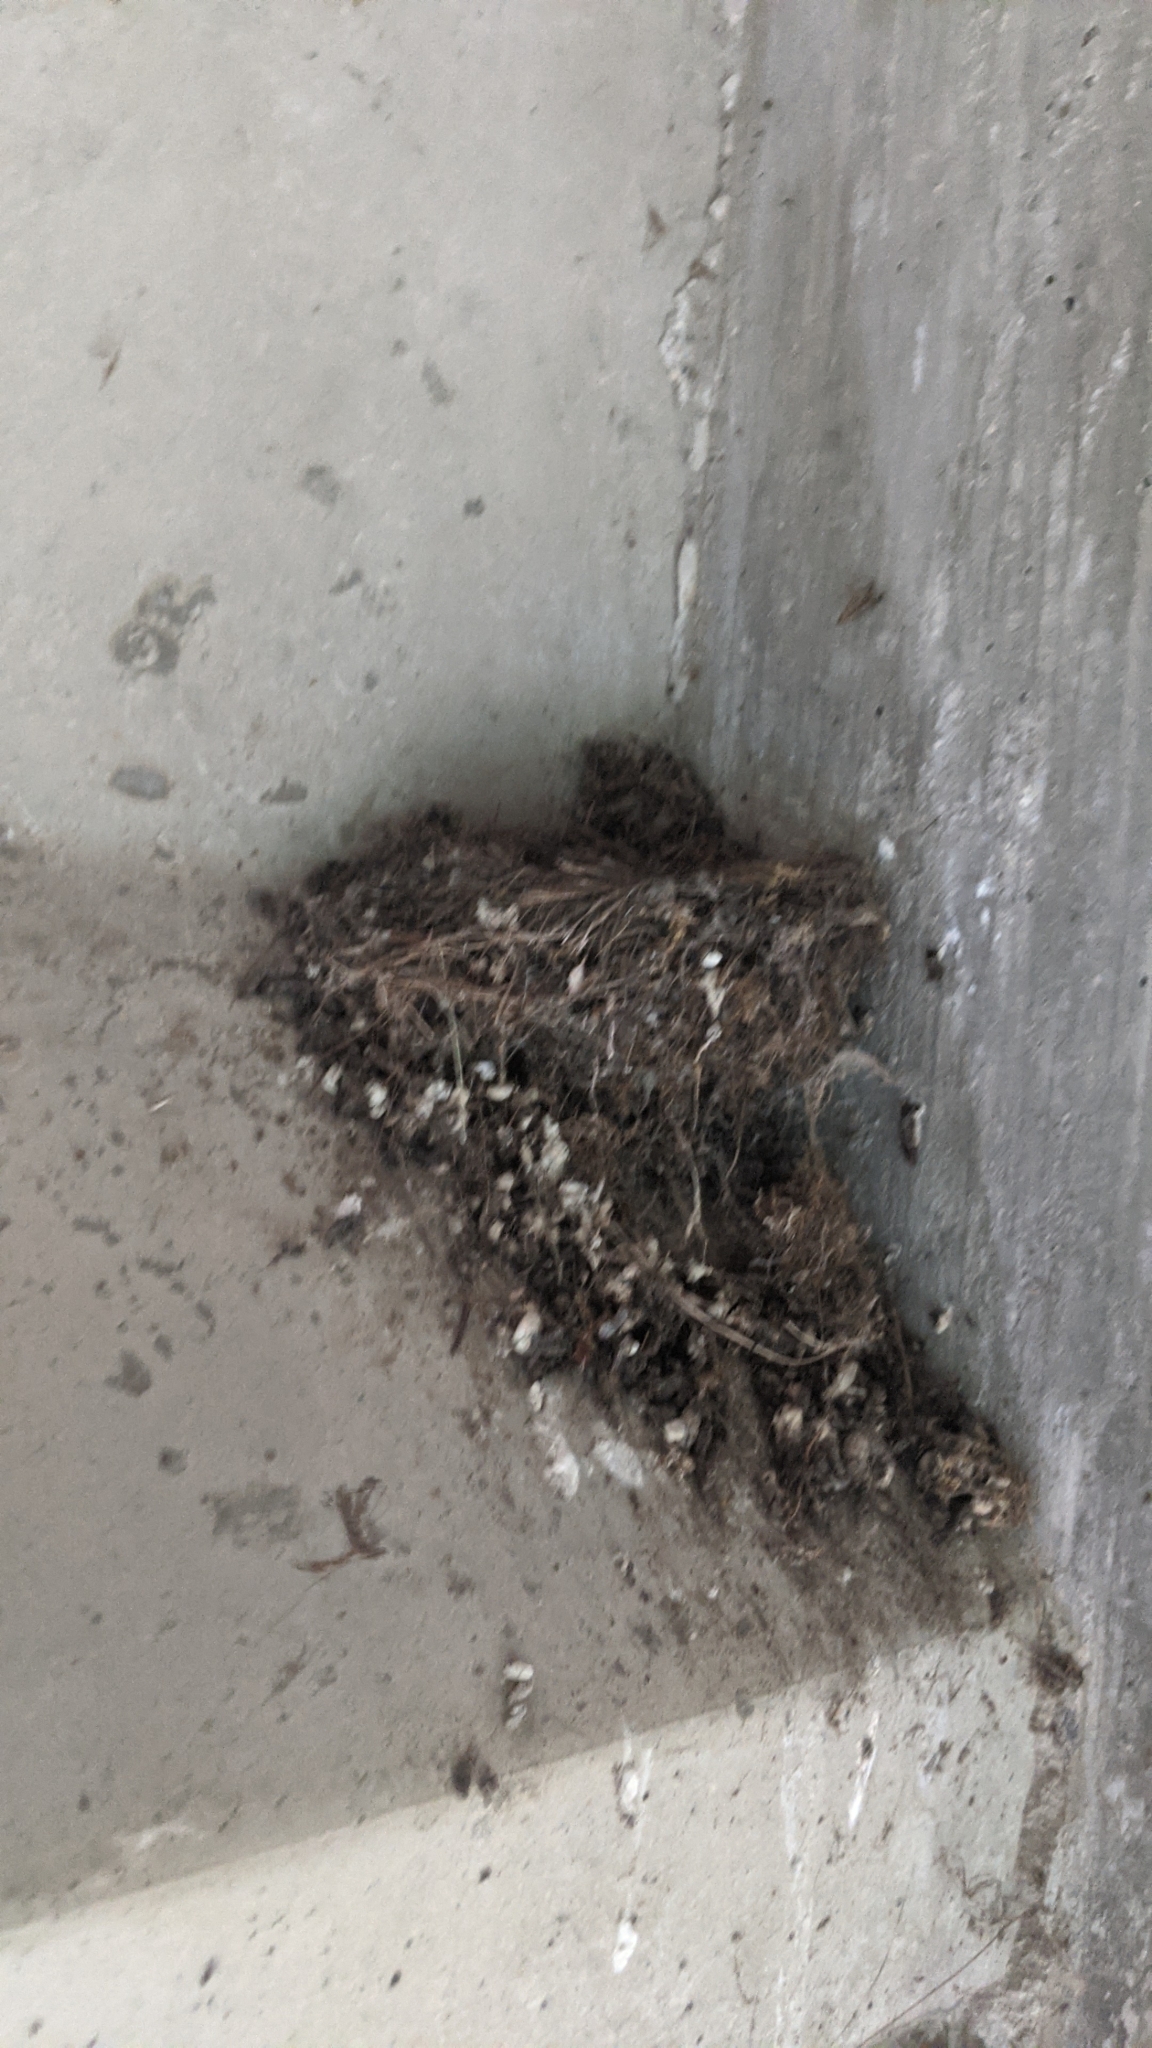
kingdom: Animalia
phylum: Chordata
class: Aves
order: Passeriformes
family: Hirundinidae
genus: Hirundo
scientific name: Hirundo rustica
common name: Barn swallow
